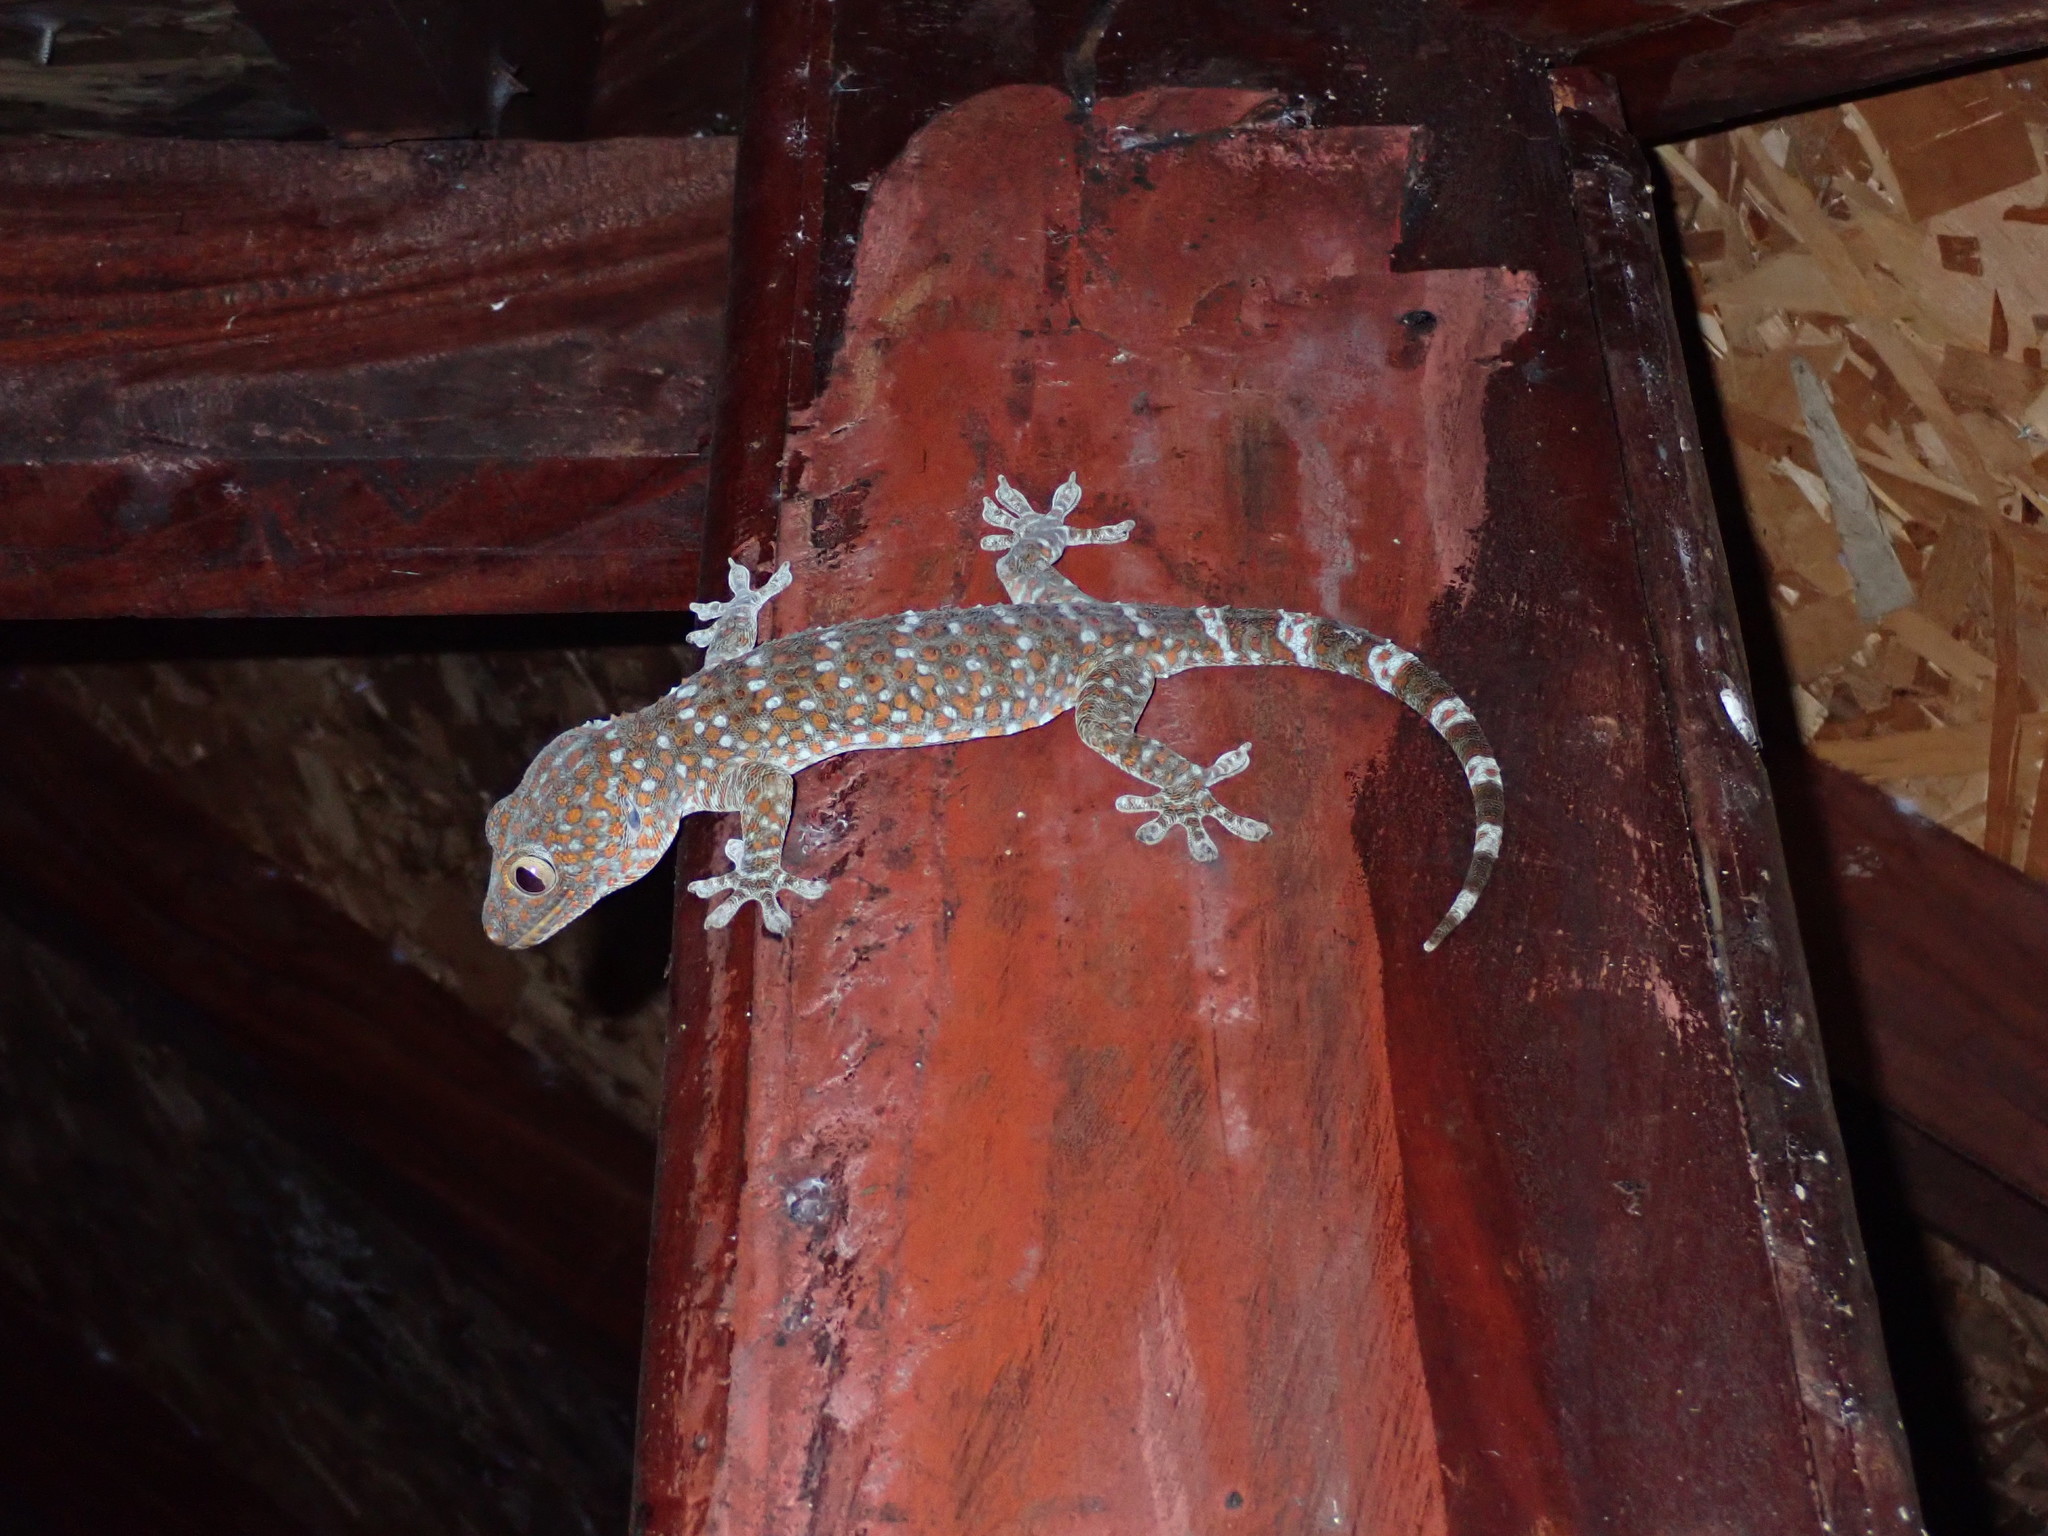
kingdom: Animalia
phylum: Chordata
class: Squamata
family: Gekkonidae
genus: Gekko
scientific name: Gekko gecko
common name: Tokay gecko
